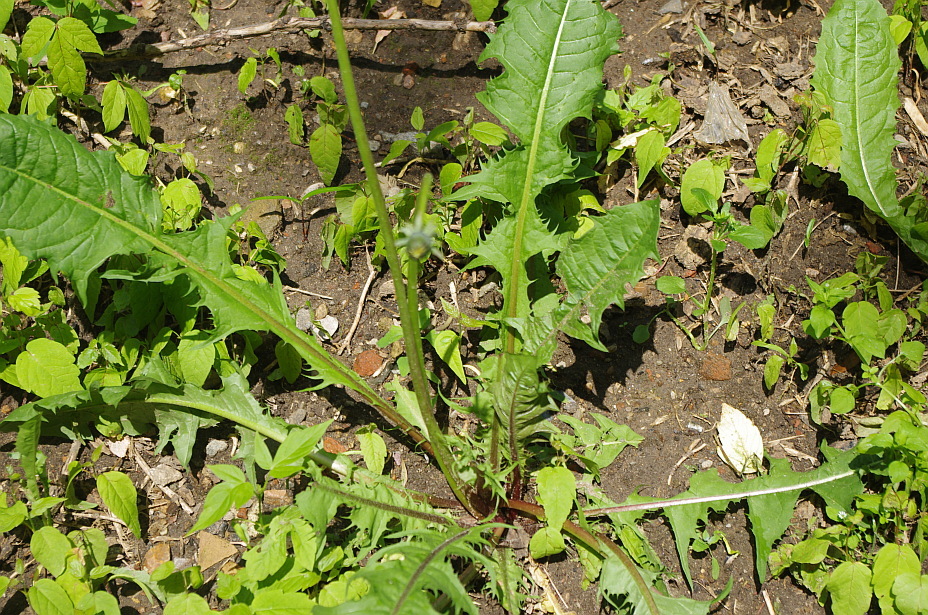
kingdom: Plantae
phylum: Tracheophyta
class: Magnoliopsida
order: Asterales
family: Asteraceae
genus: Taraxacum
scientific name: Taraxacum officinale
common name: Common dandelion
